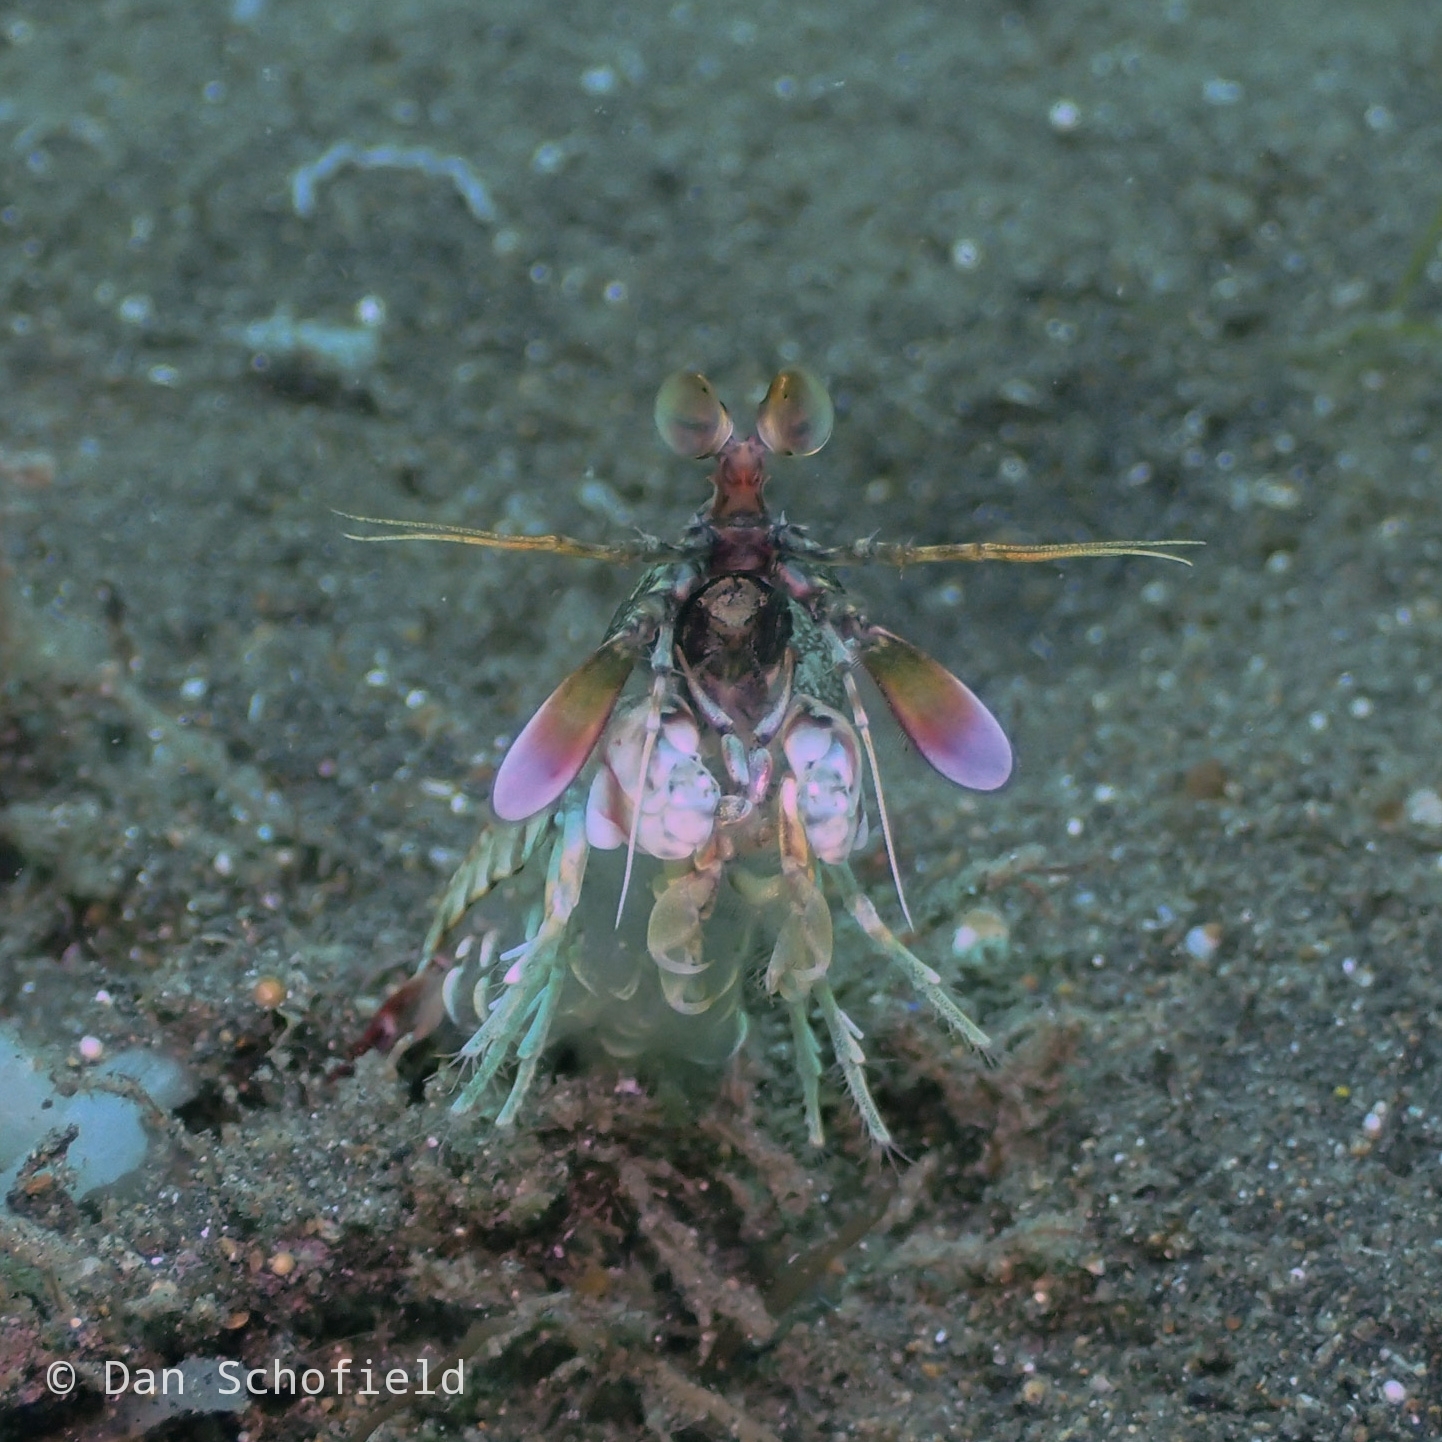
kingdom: Animalia
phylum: Arthropoda
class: Malacostraca
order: Stomatopoda
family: Odontodactylidae
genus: Odontodactylus
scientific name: Odontodactylus latirostris
